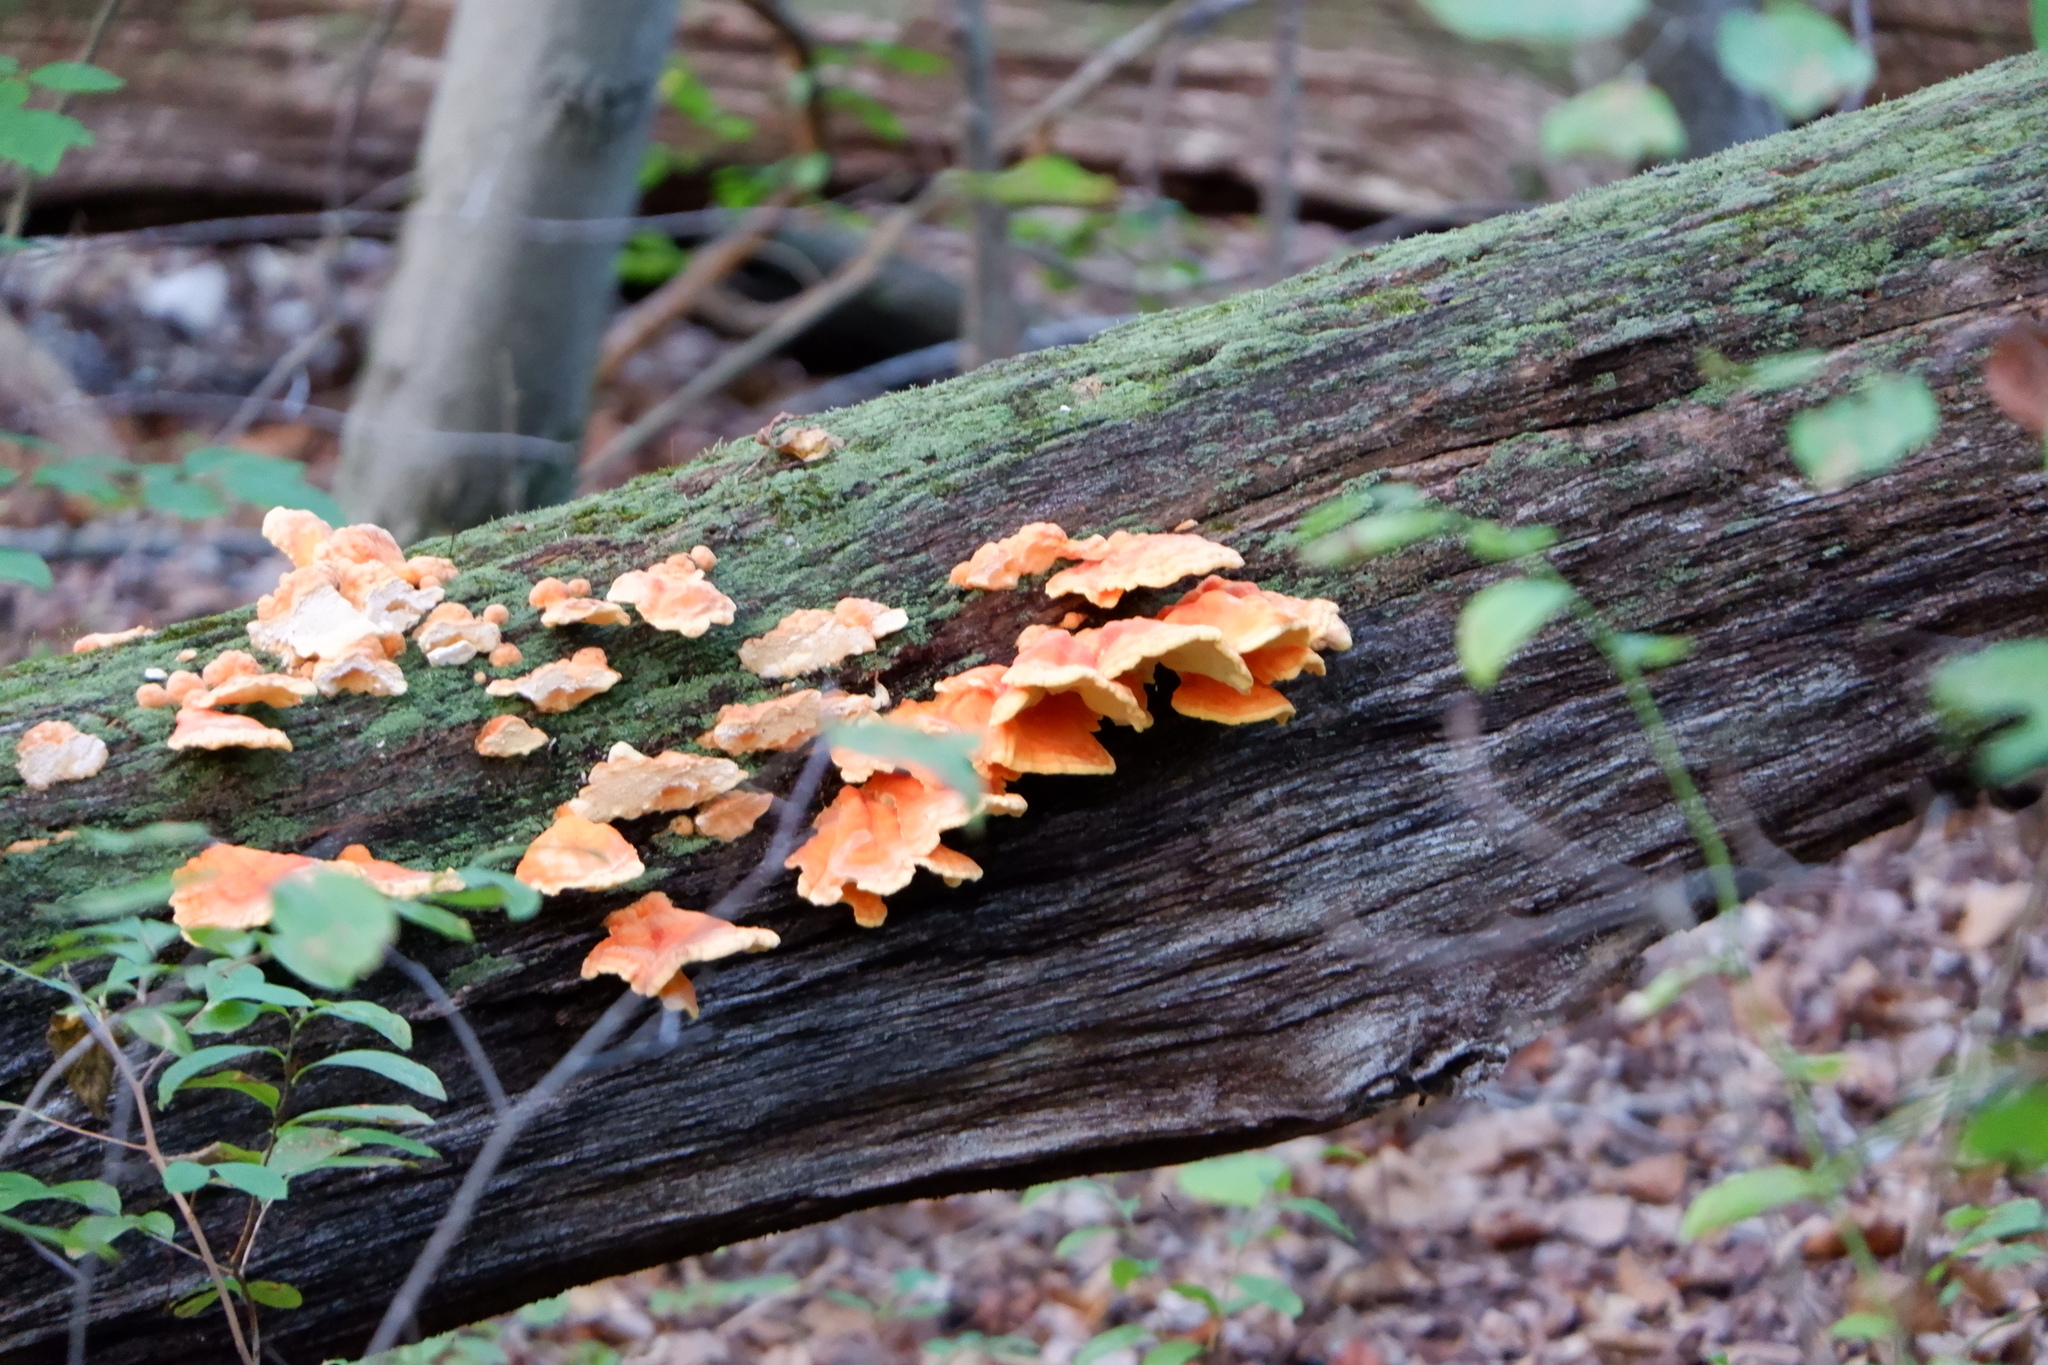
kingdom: Fungi
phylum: Basidiomycota
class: Agaricomycetes
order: Polyporales
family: Laetiporaceae
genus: Laetiporus
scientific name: Laetiporus sulphureus
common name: Chicken of the woods
